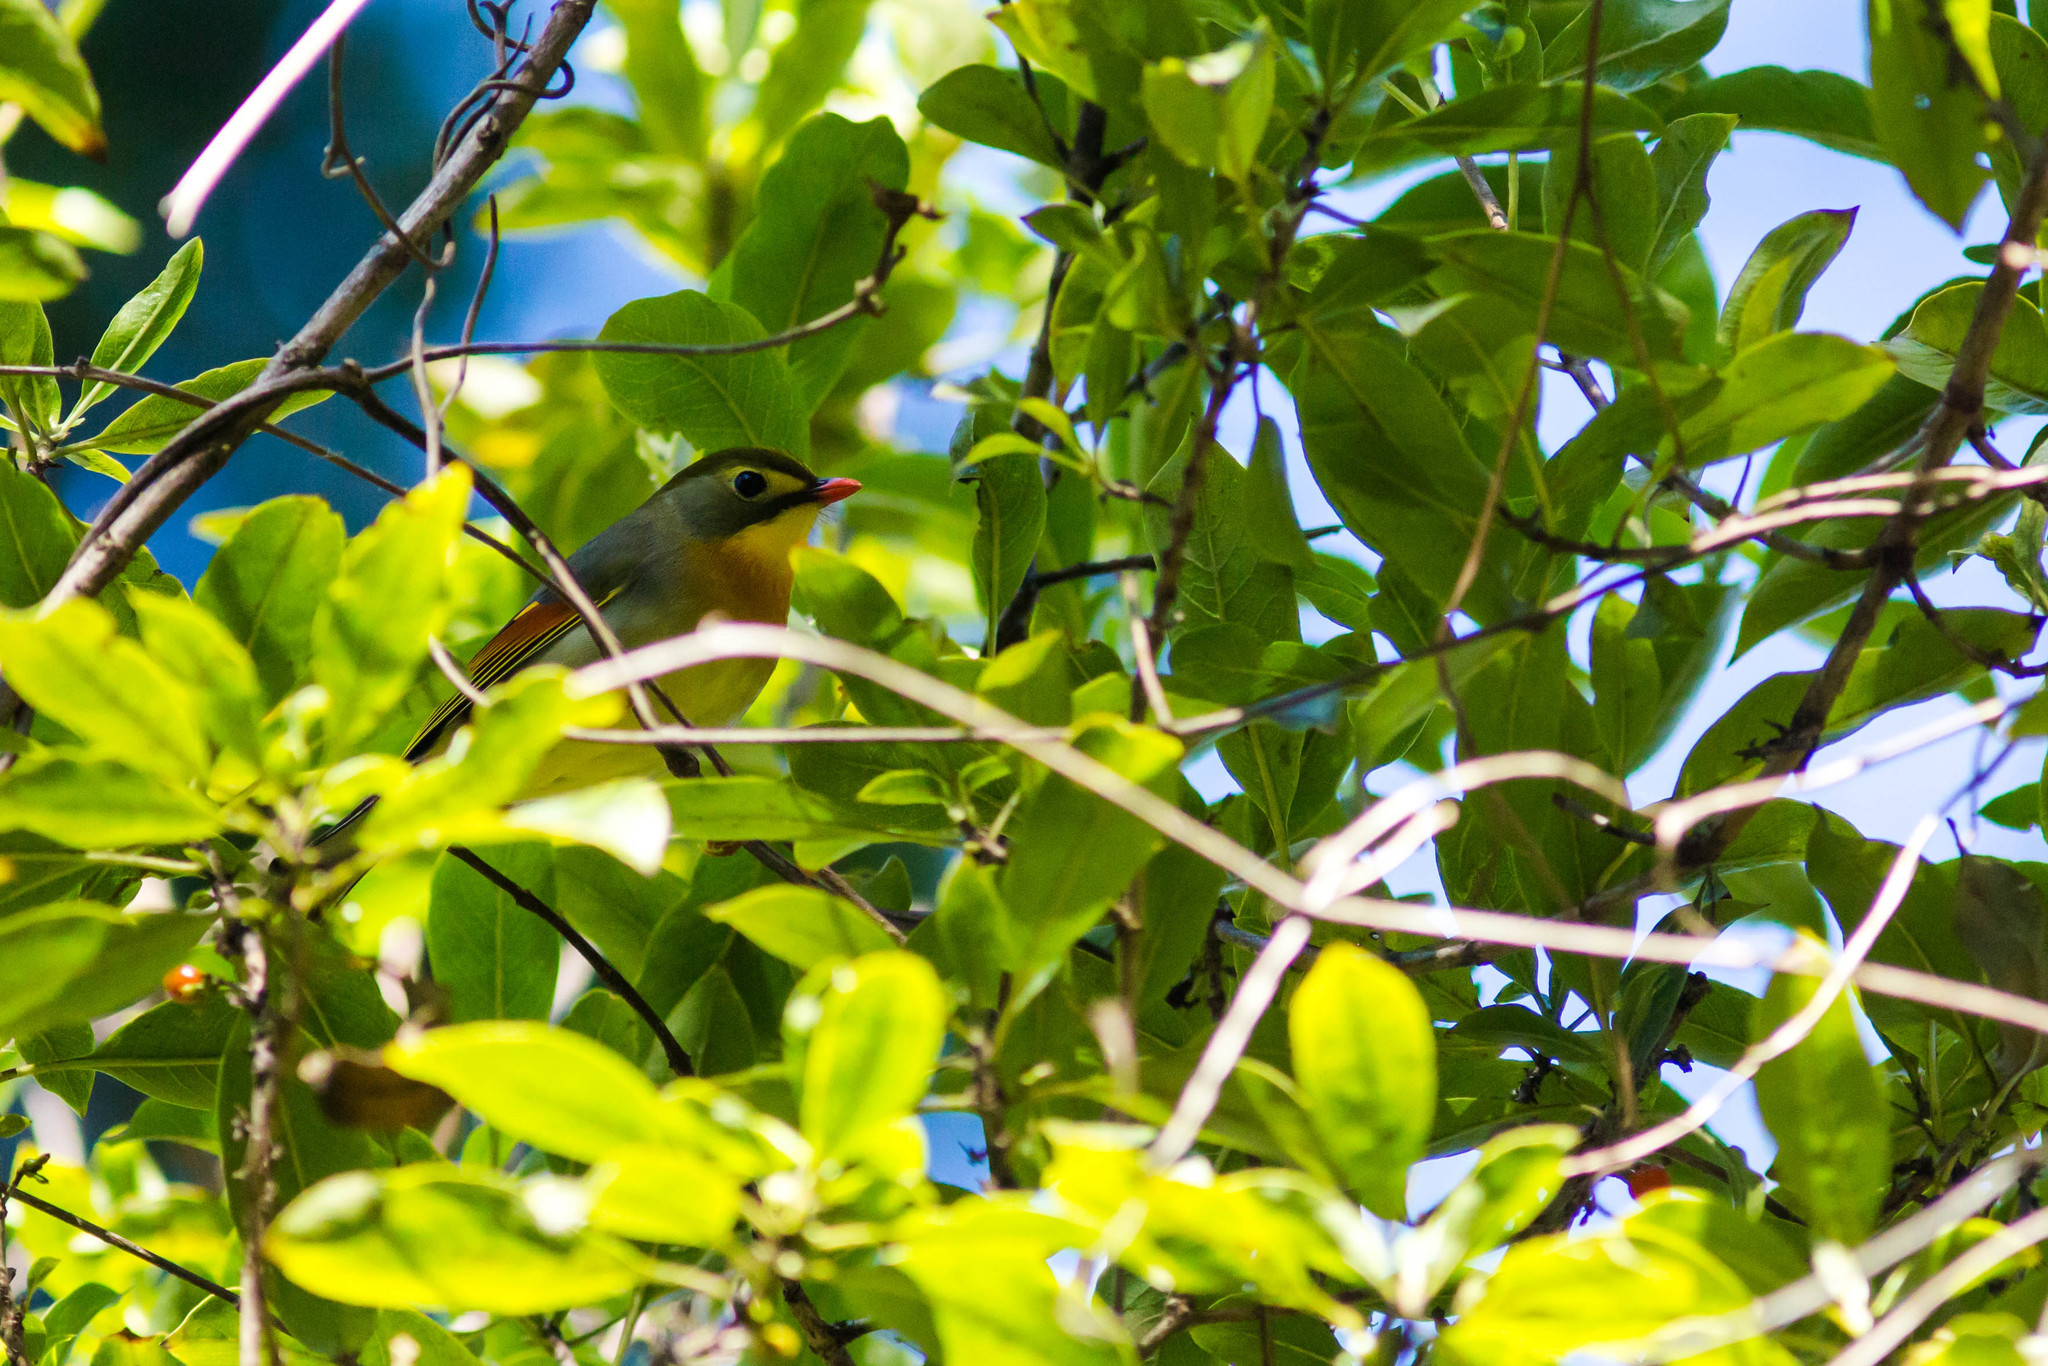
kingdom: Animalia
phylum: Chordata
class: Aves
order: Passeriformes
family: Leiothrichidae
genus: Leiothrix
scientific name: Leiothrix lutea
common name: Red-billed leiothrix
